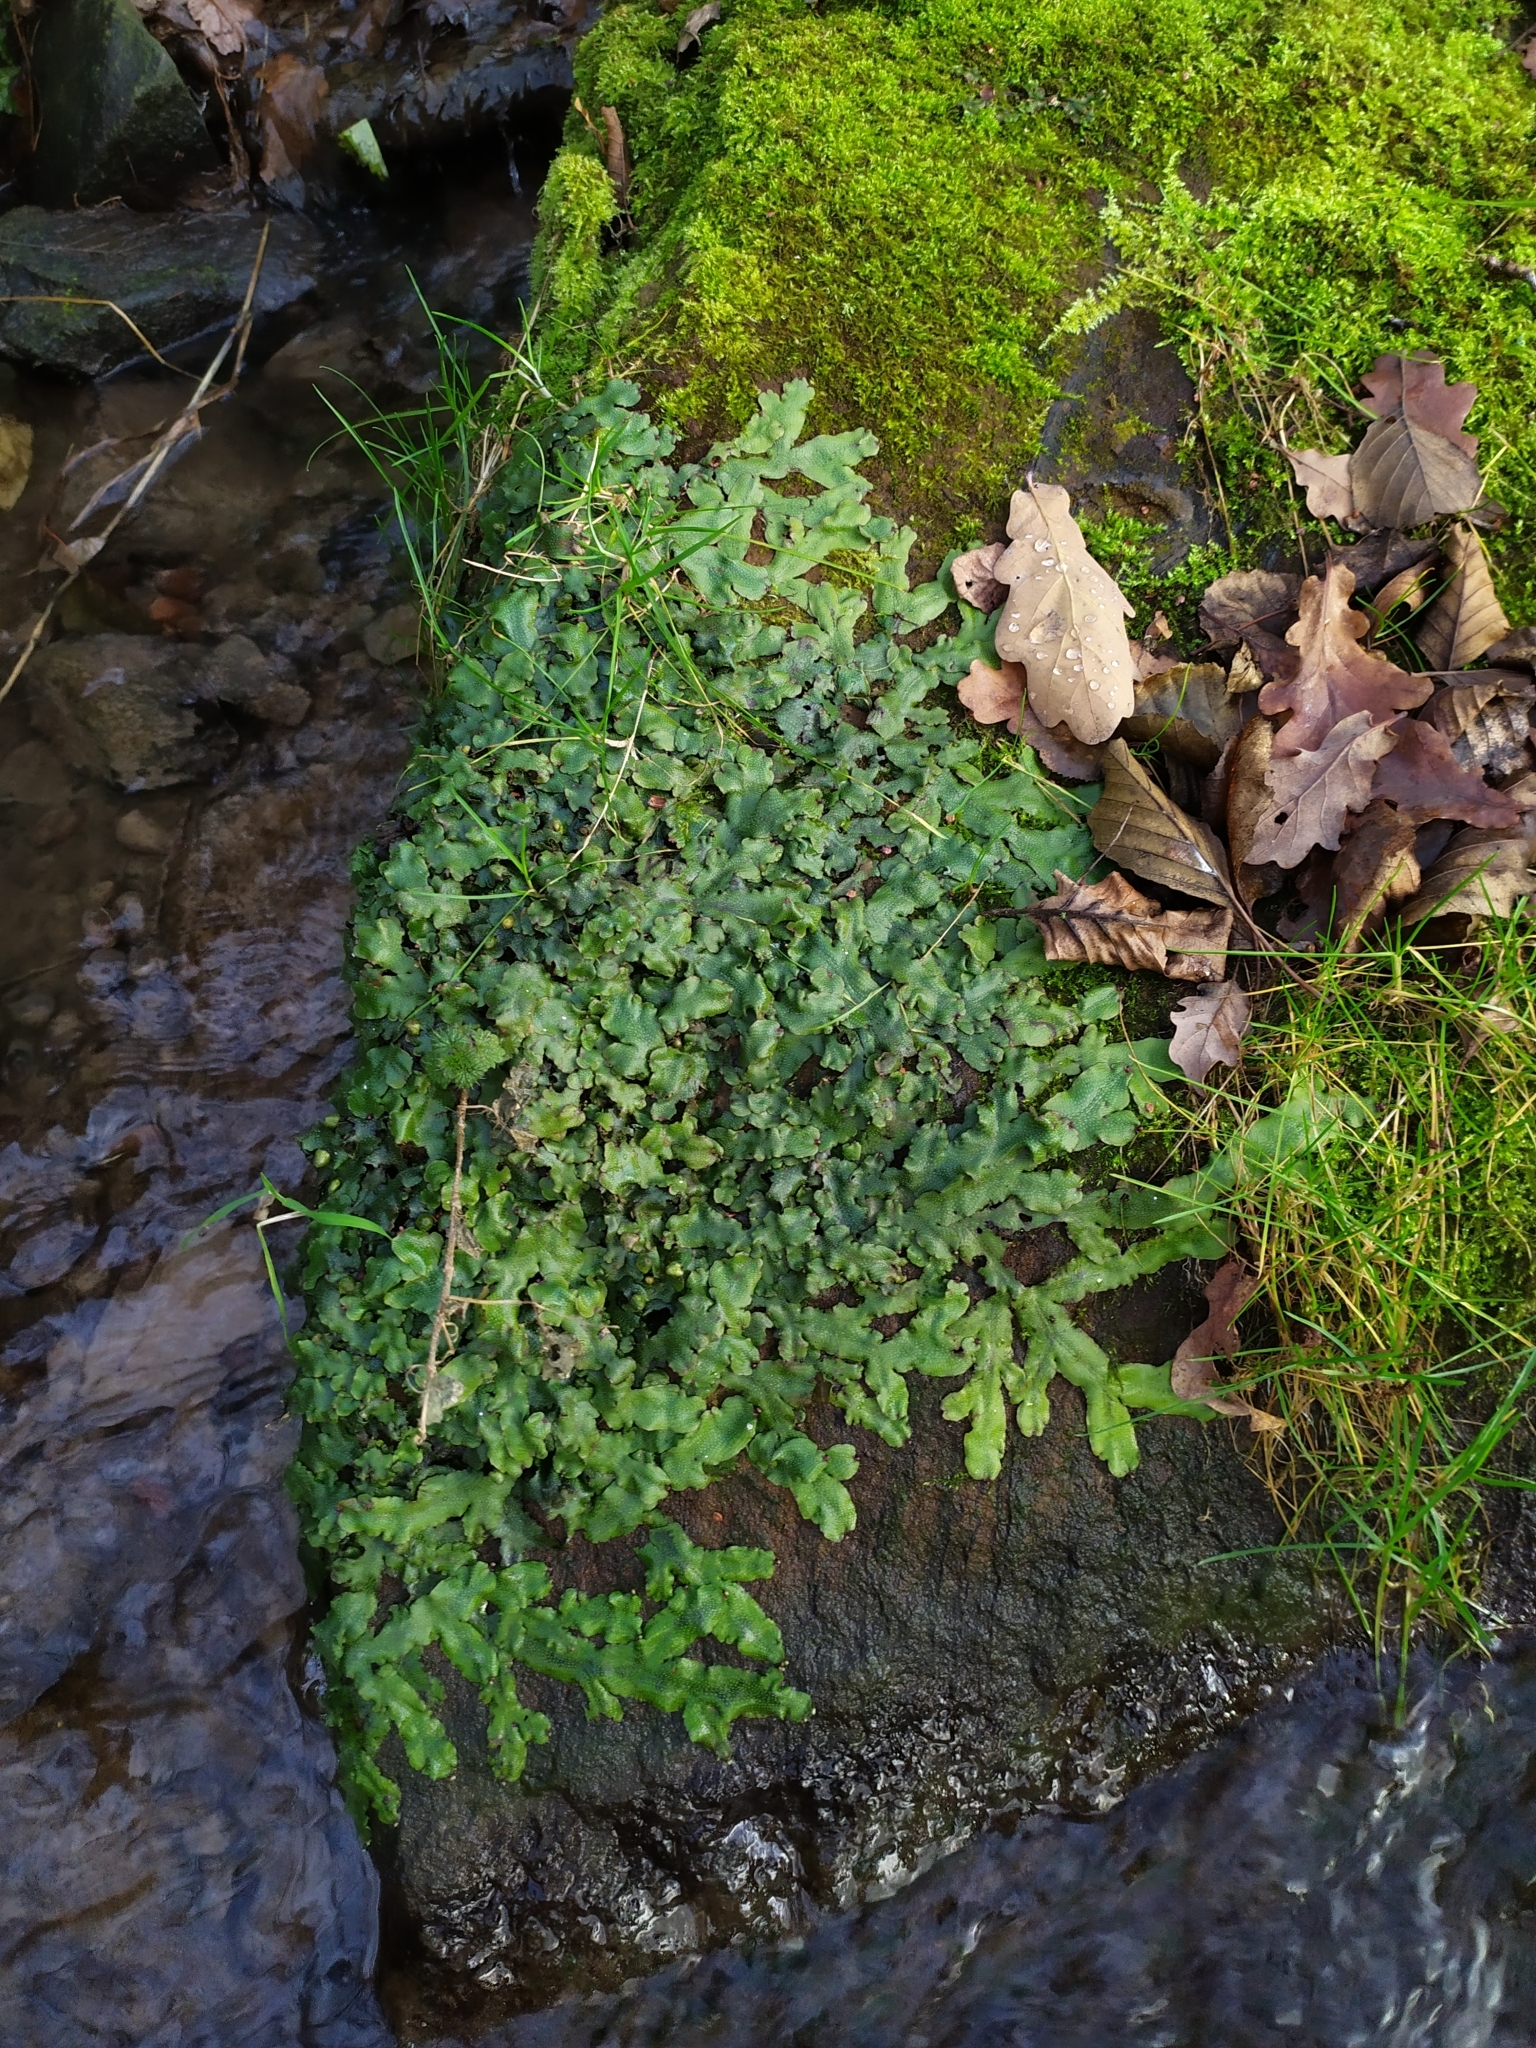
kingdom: Plantae
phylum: Marchantiophyta
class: Marchantiopsida
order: Marchantiales
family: Conocephalaceae
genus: Conocephalum
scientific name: Conocephalum conicum
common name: Great scented liverwort
